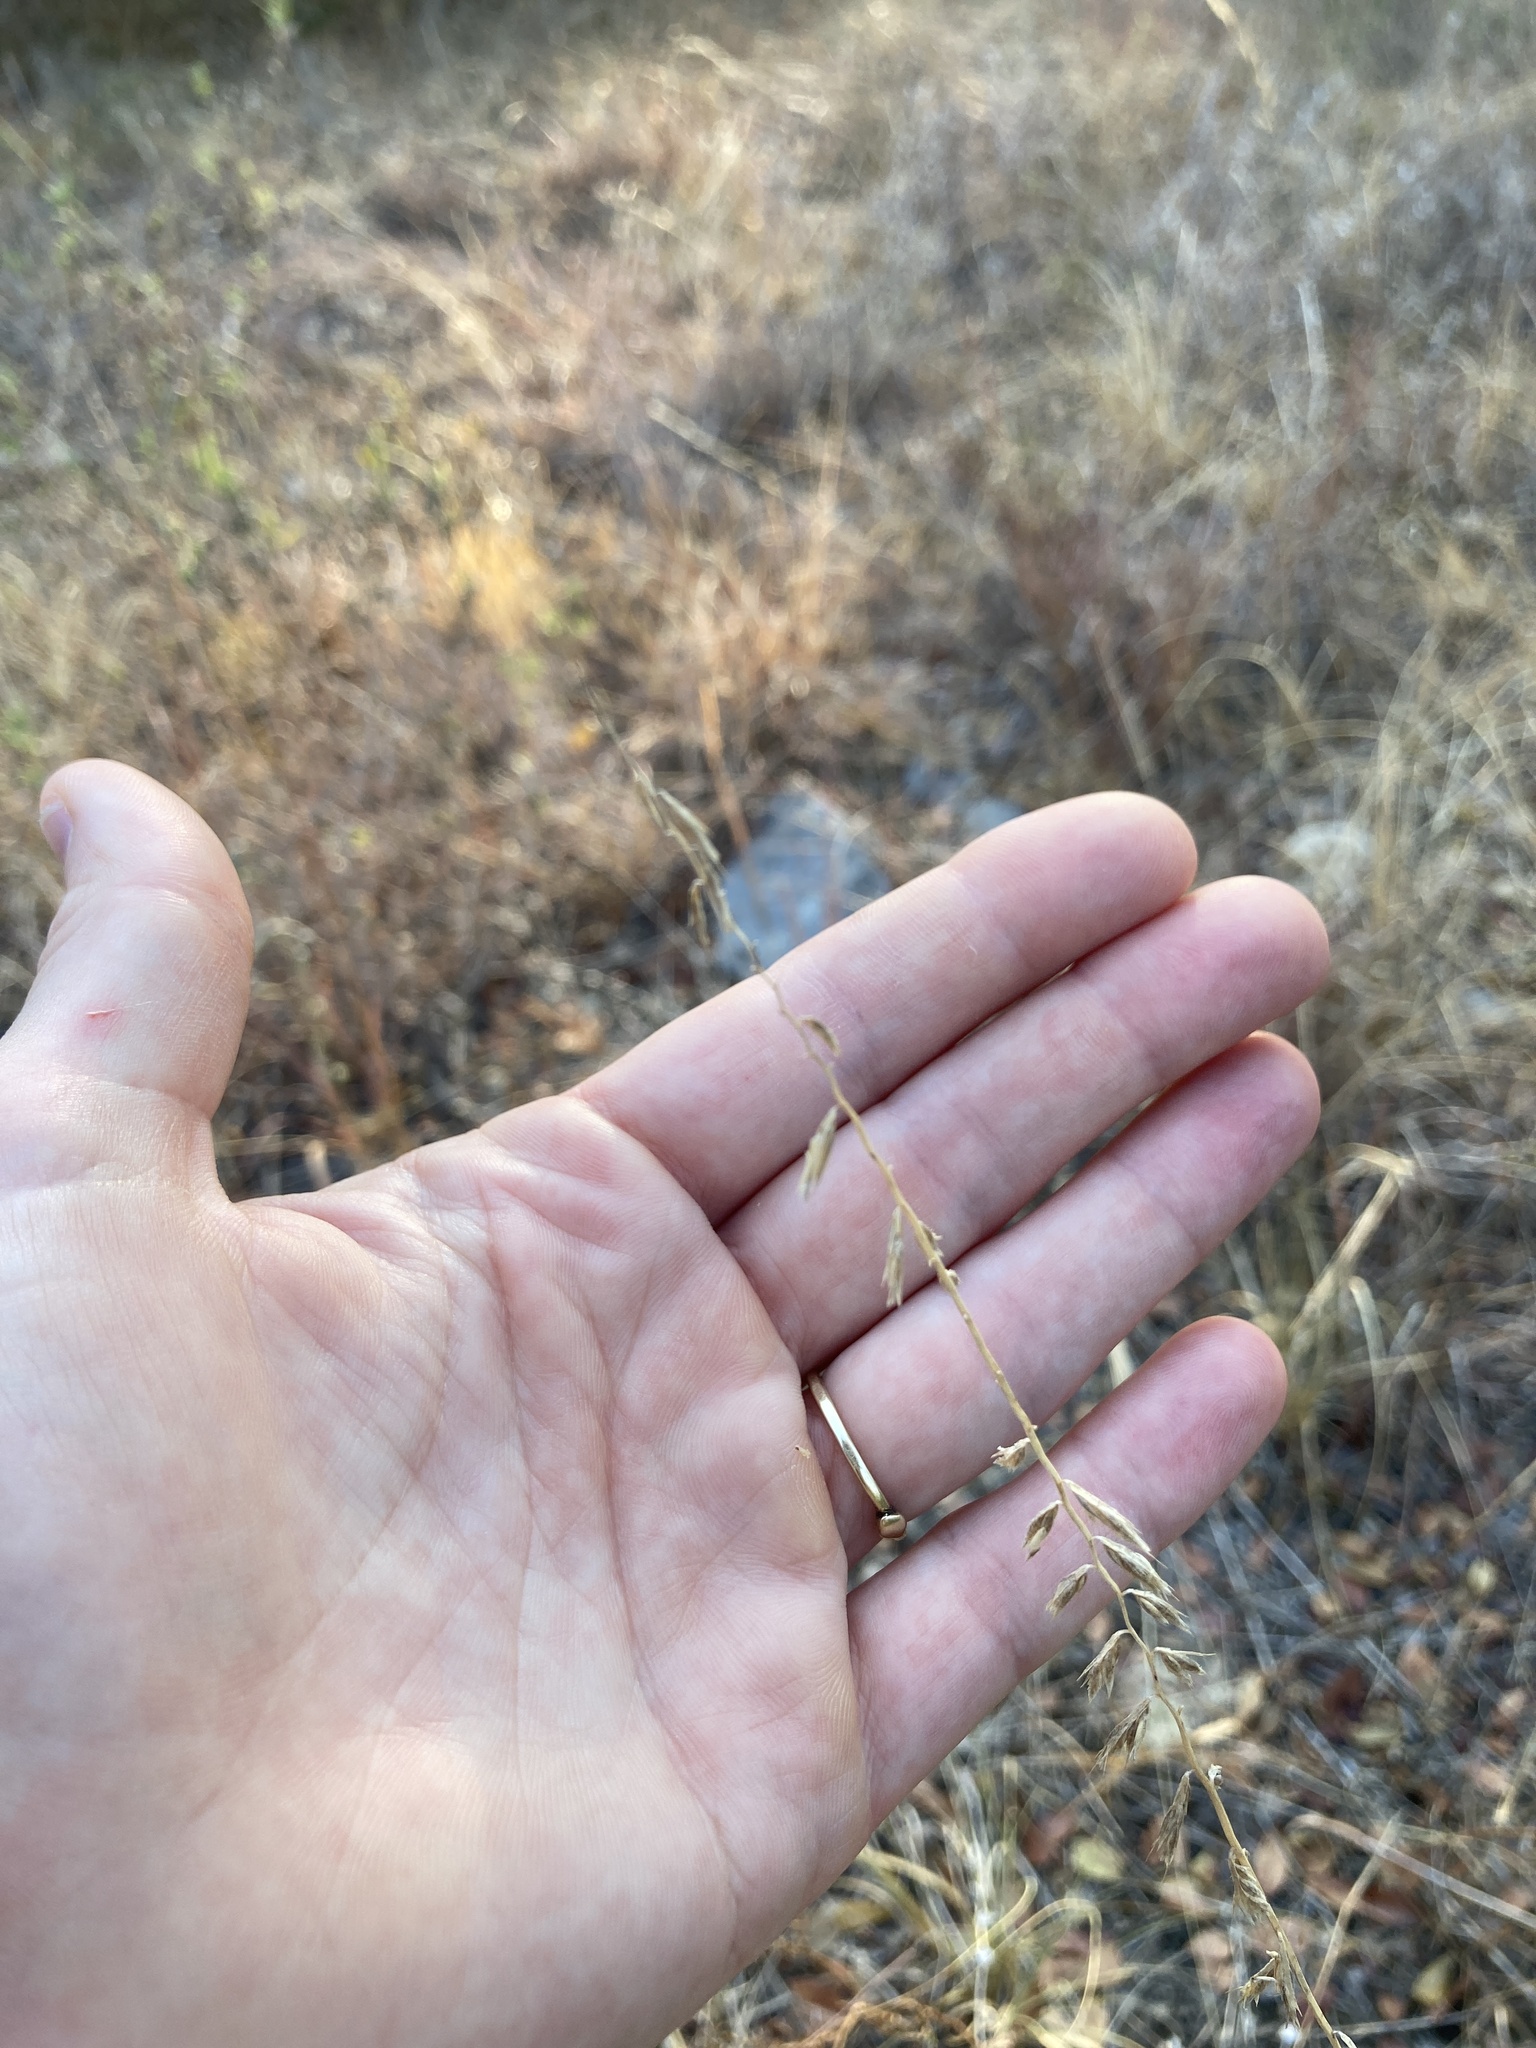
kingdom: Plantae
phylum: Tracheophyta
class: Liliopsida
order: Poales
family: Poaceae
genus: Bouteloua
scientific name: Bouteloua curtipendula
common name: Side-oats grama
